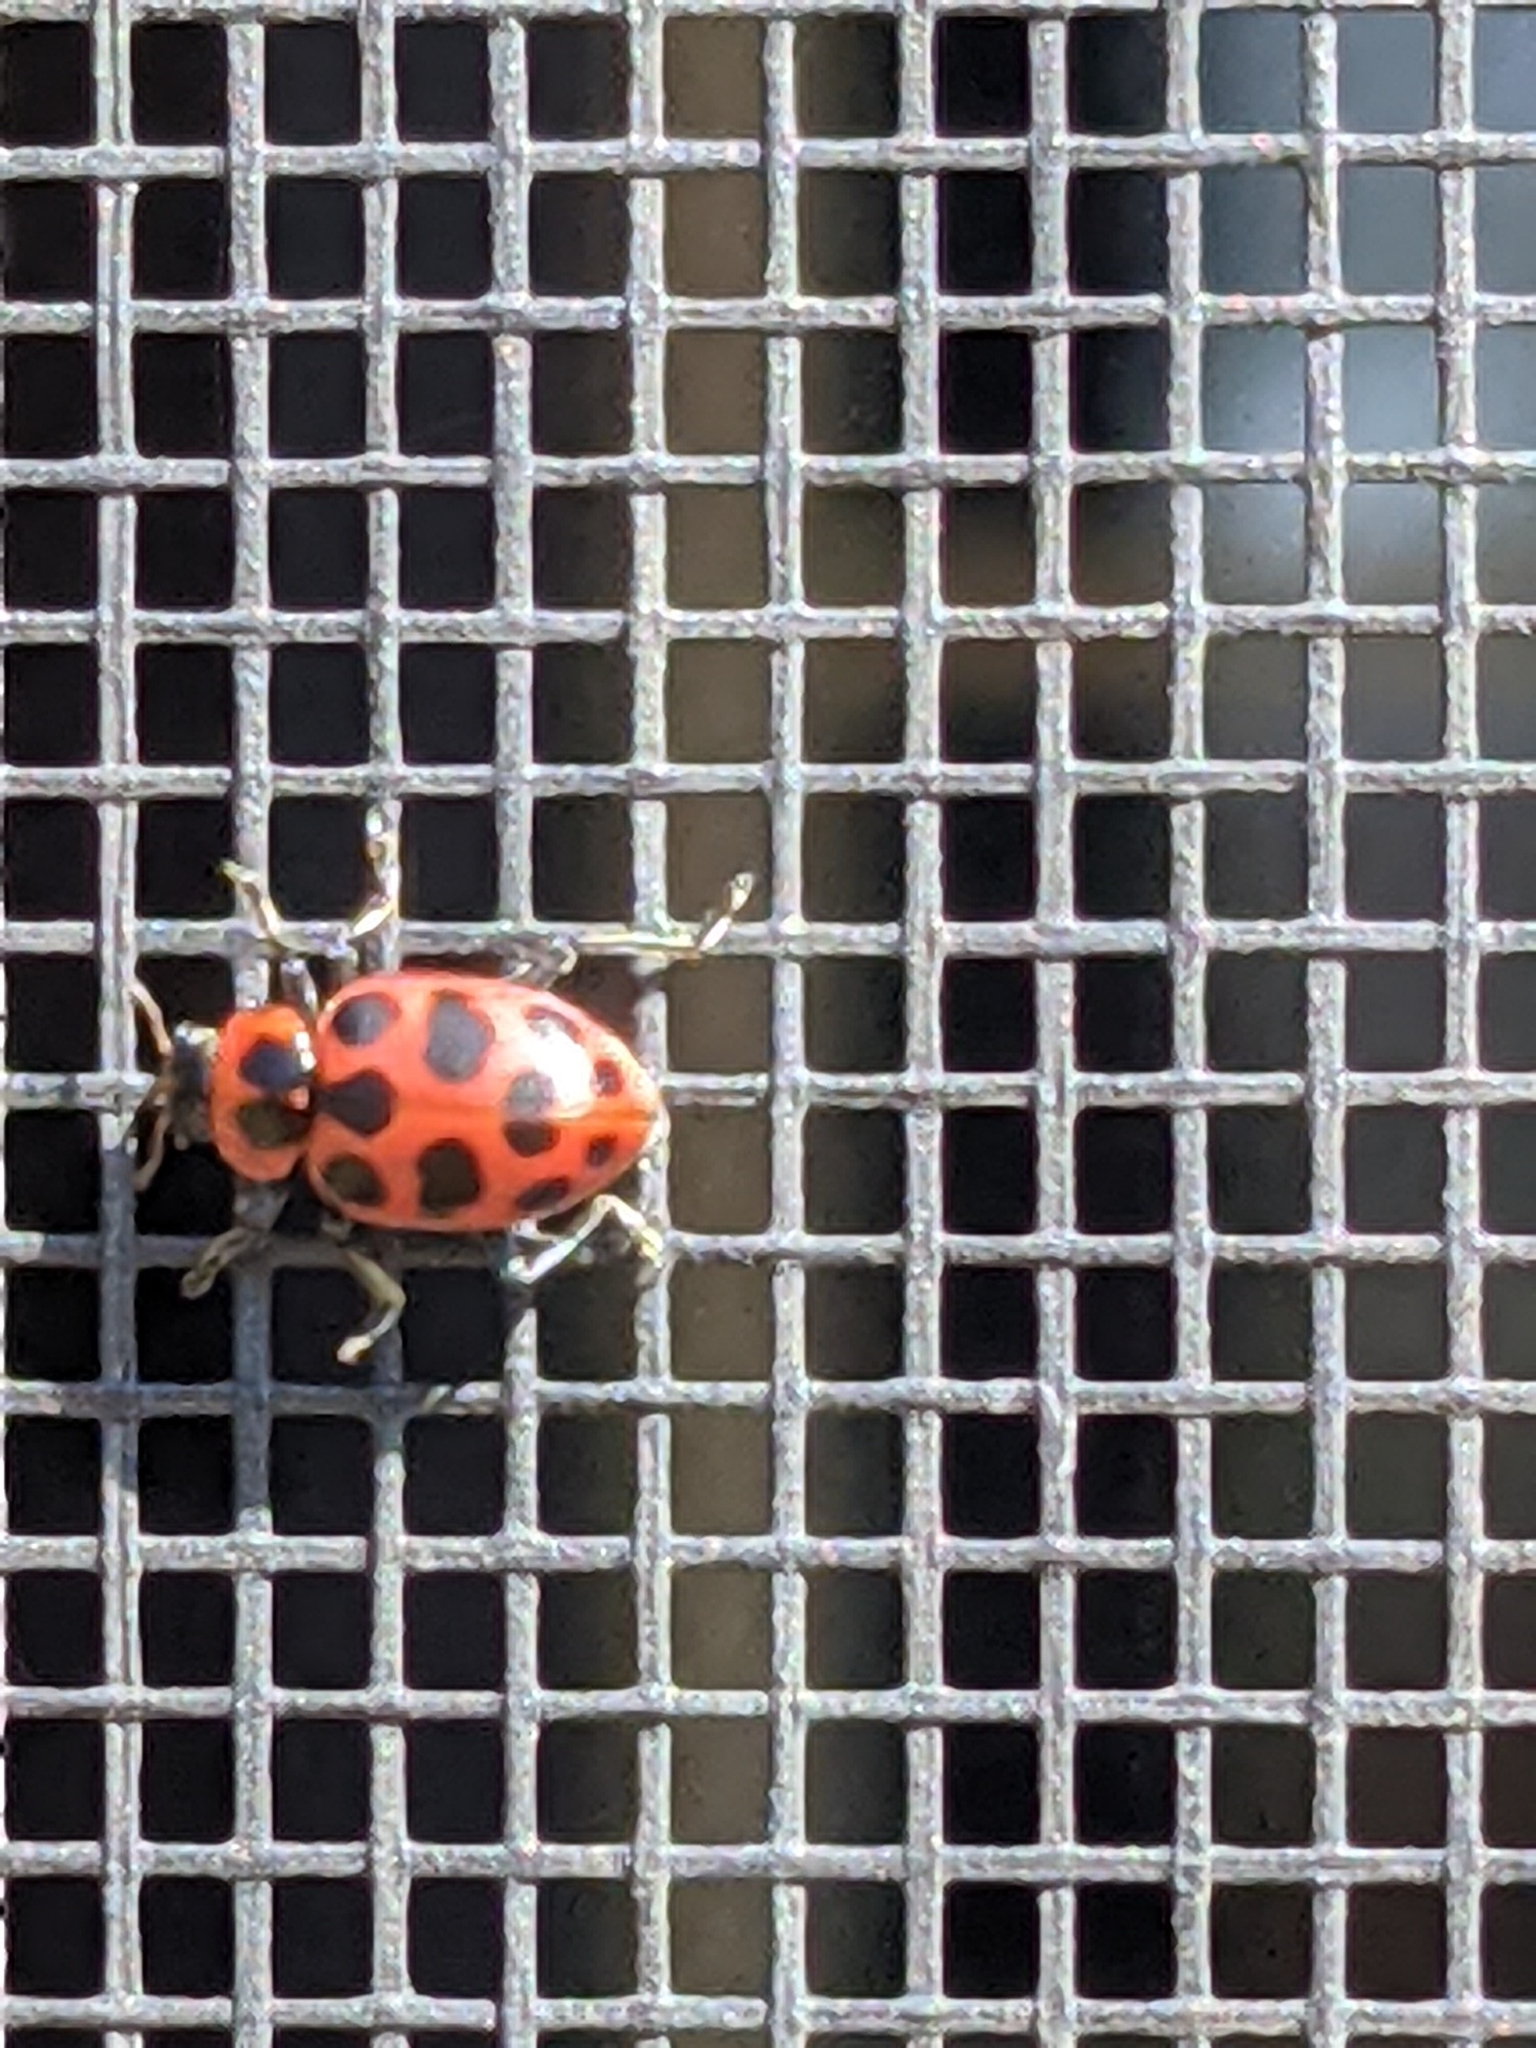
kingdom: Animalia
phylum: Arthropoda
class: Insecta
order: Coleoptera
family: Coccinellidae
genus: Coleomegilla
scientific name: Coleomegilla maculata
